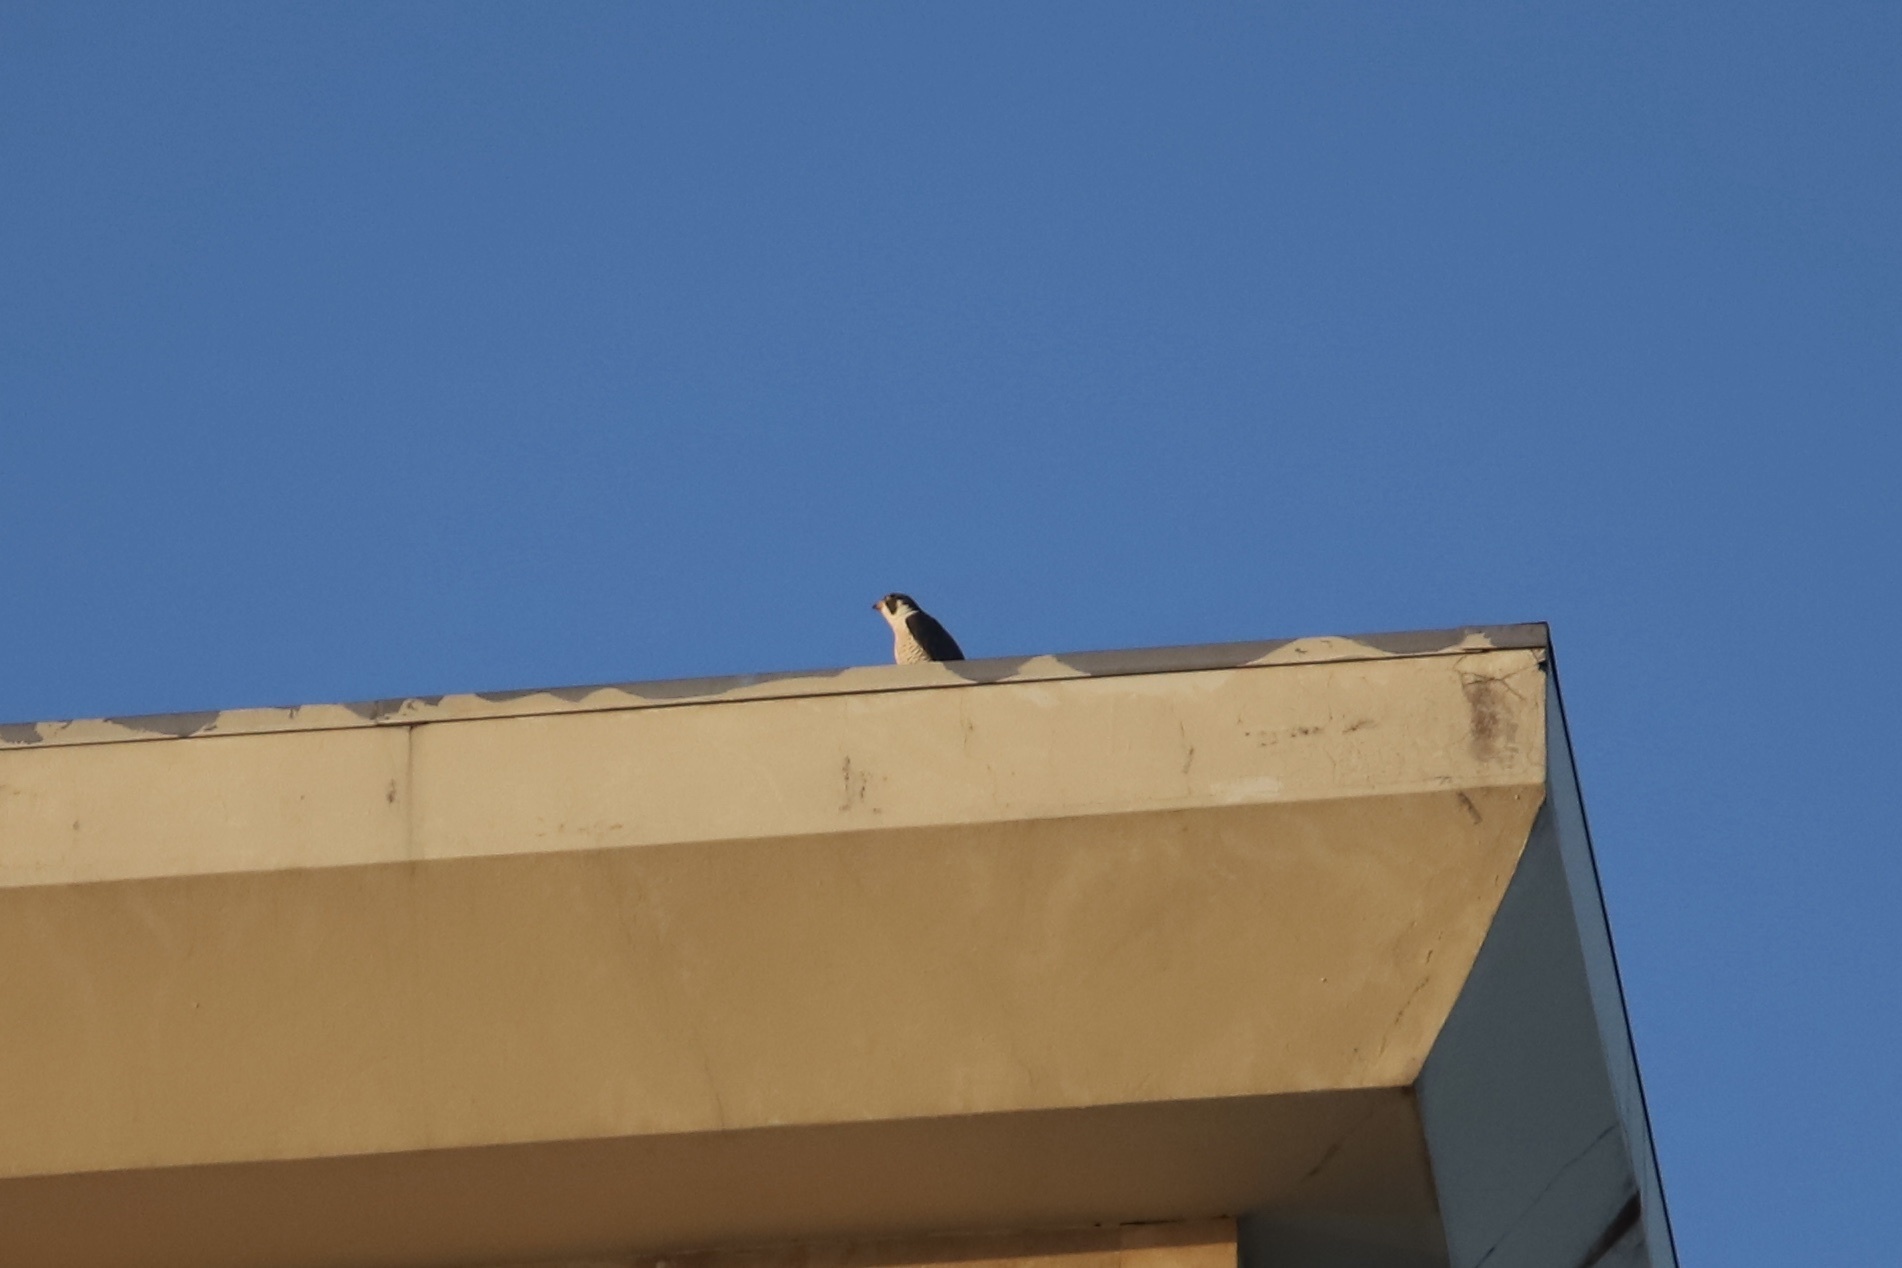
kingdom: Animalia
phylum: Chordata
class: Aves
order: Falconiformes
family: Falconidae
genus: Falco
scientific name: Falco peregrinus
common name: Peregrine falcon
